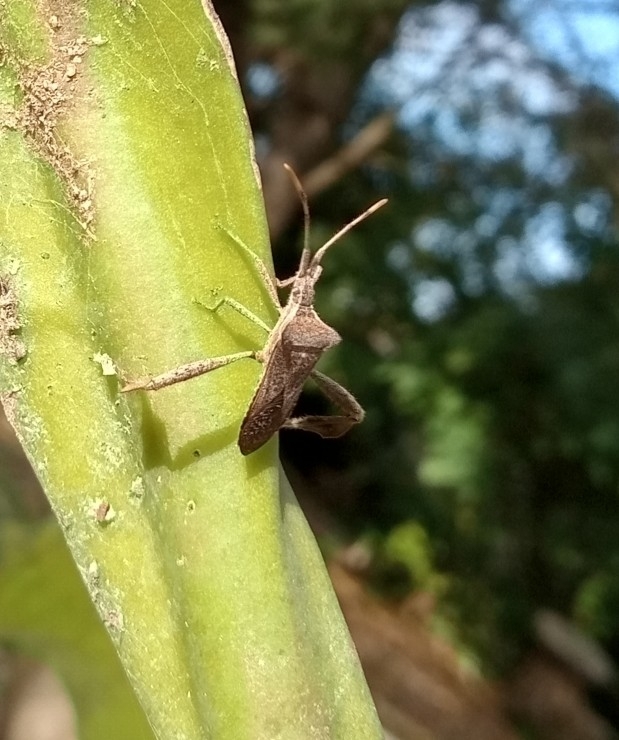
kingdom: Animalia
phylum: Arthropoda
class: Insecta
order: Hemiptera
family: Coreidae
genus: Leptoglossus
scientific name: Leptoglossus concaviusculus
